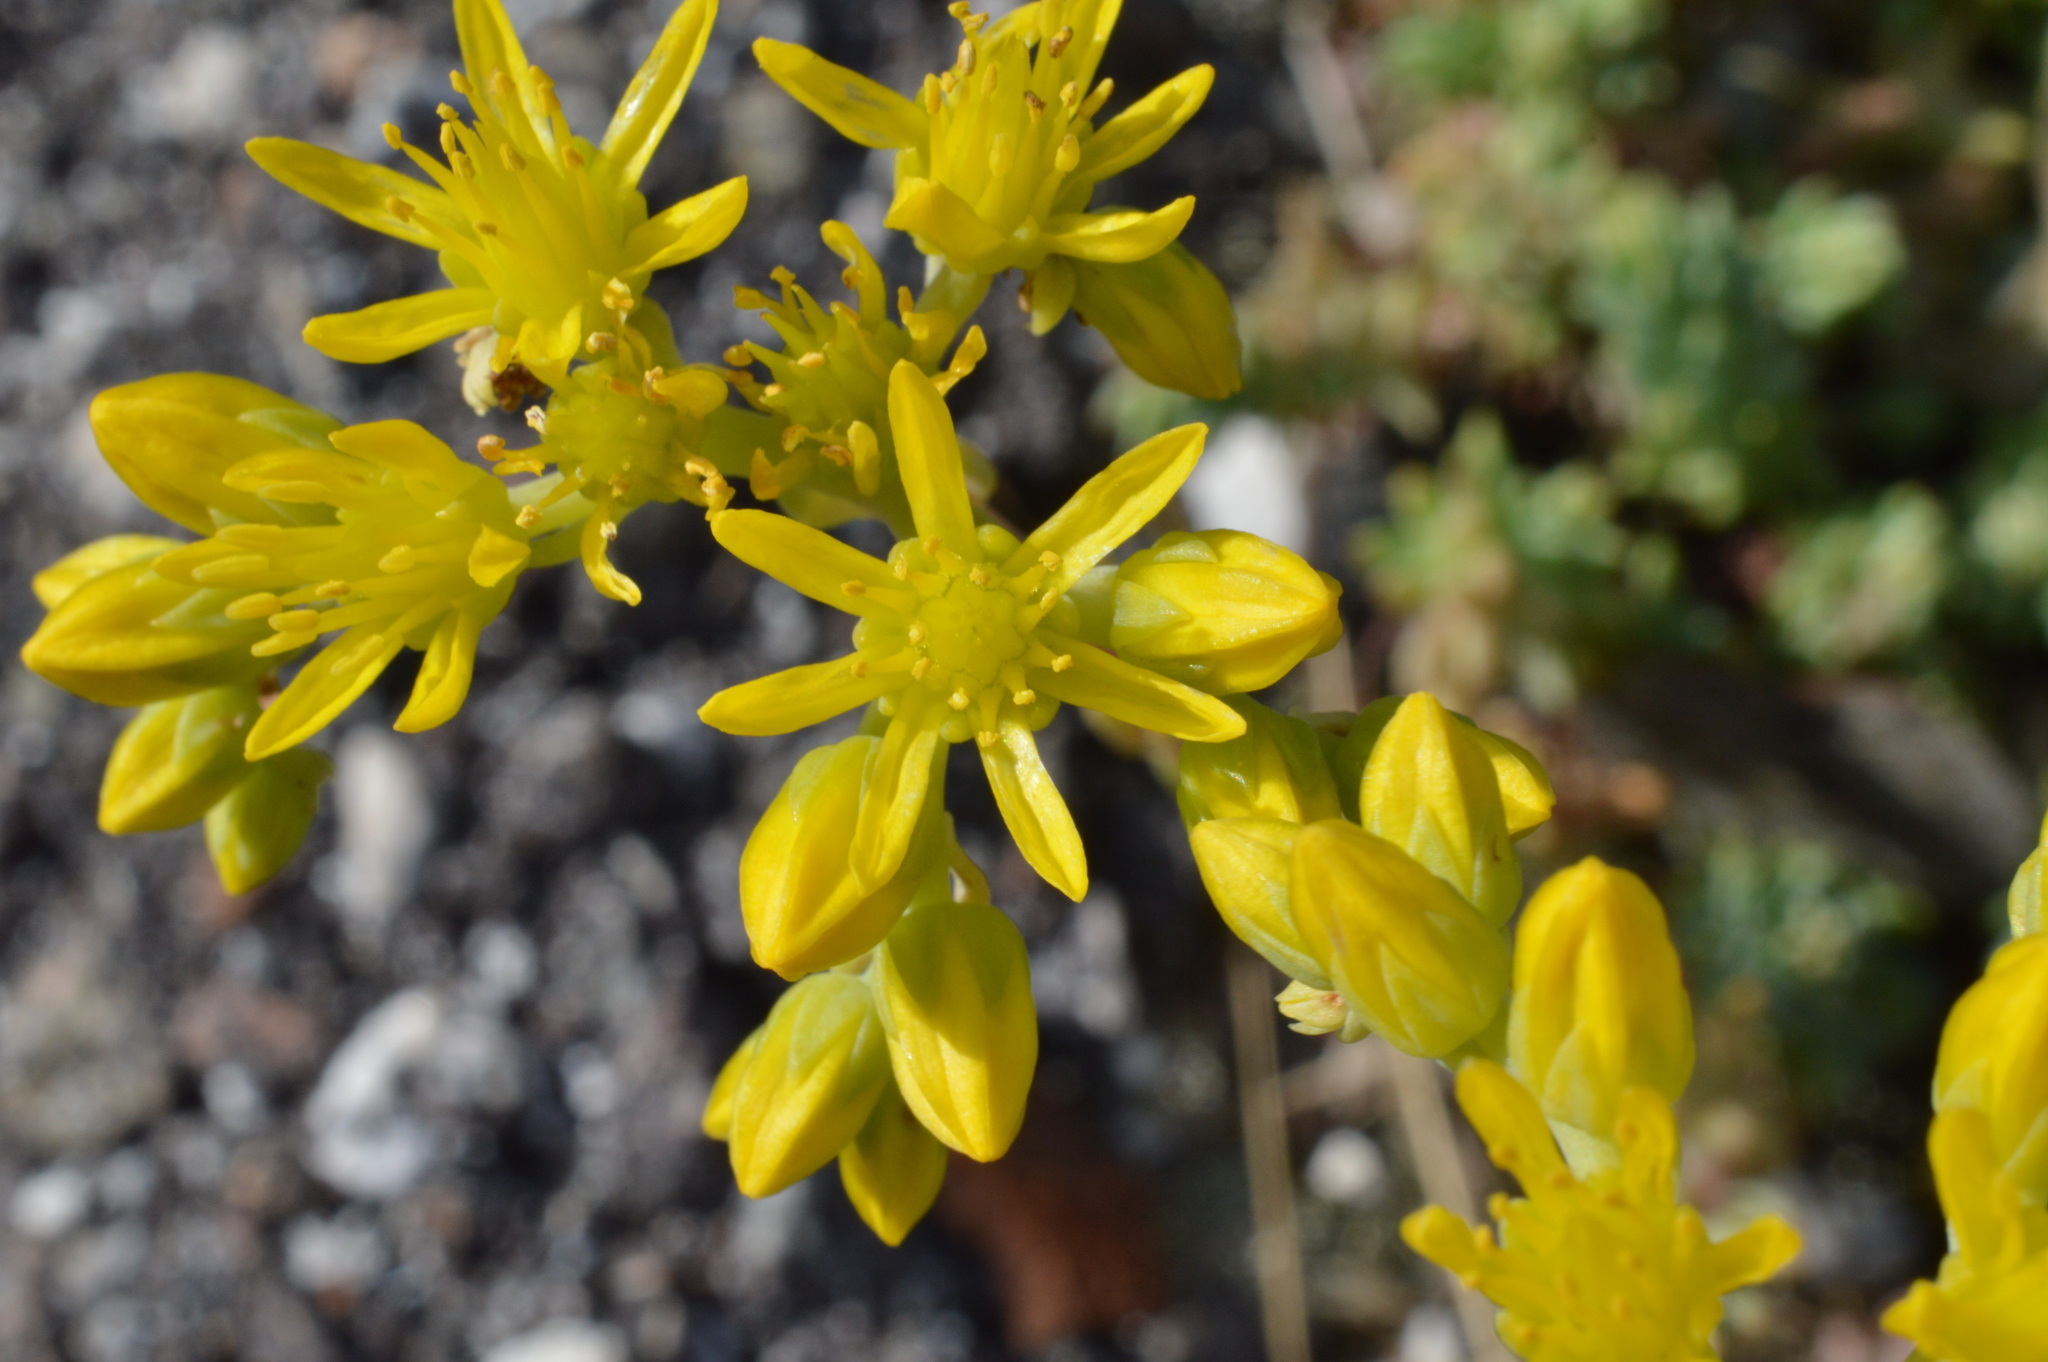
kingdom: Plantae
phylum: Tracheophyta
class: Magnoliopsida
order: Saxifragales
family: Crassulaceae
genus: Petrosedum
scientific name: Petrosedum rupestre
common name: Jenny's stonecrop
